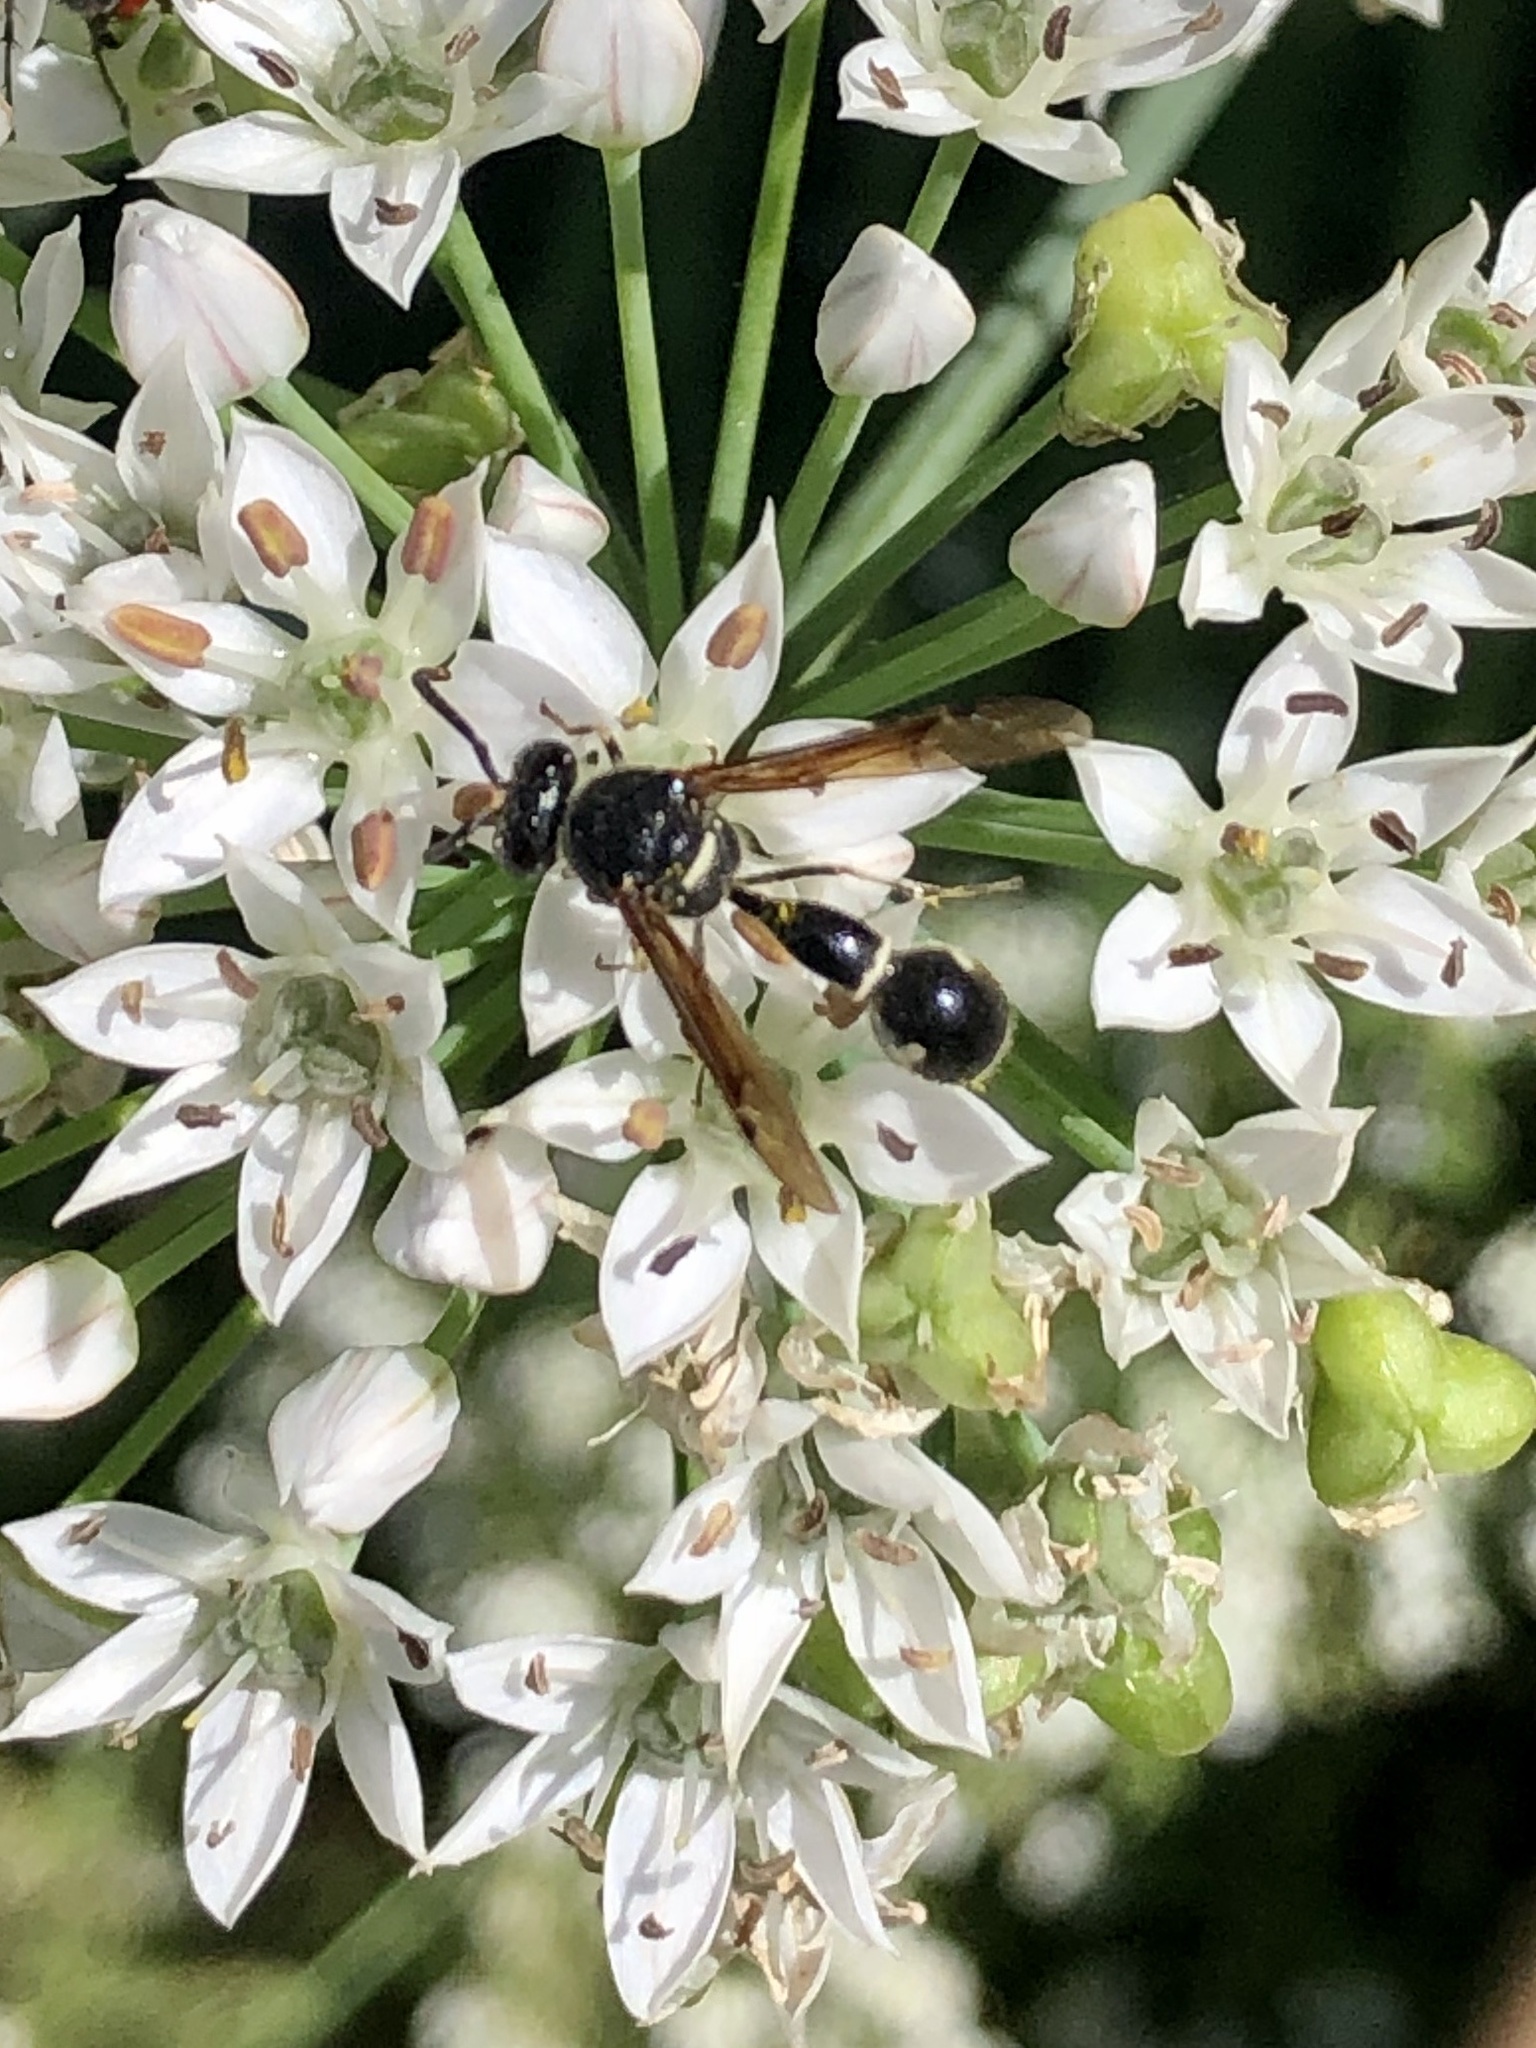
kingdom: Animalia
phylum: Arthropoda
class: Insecta
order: Hymenoptera
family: Vespidae
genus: Eumenes
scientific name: Eumenes fraternus
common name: Fraternal potter wasp
